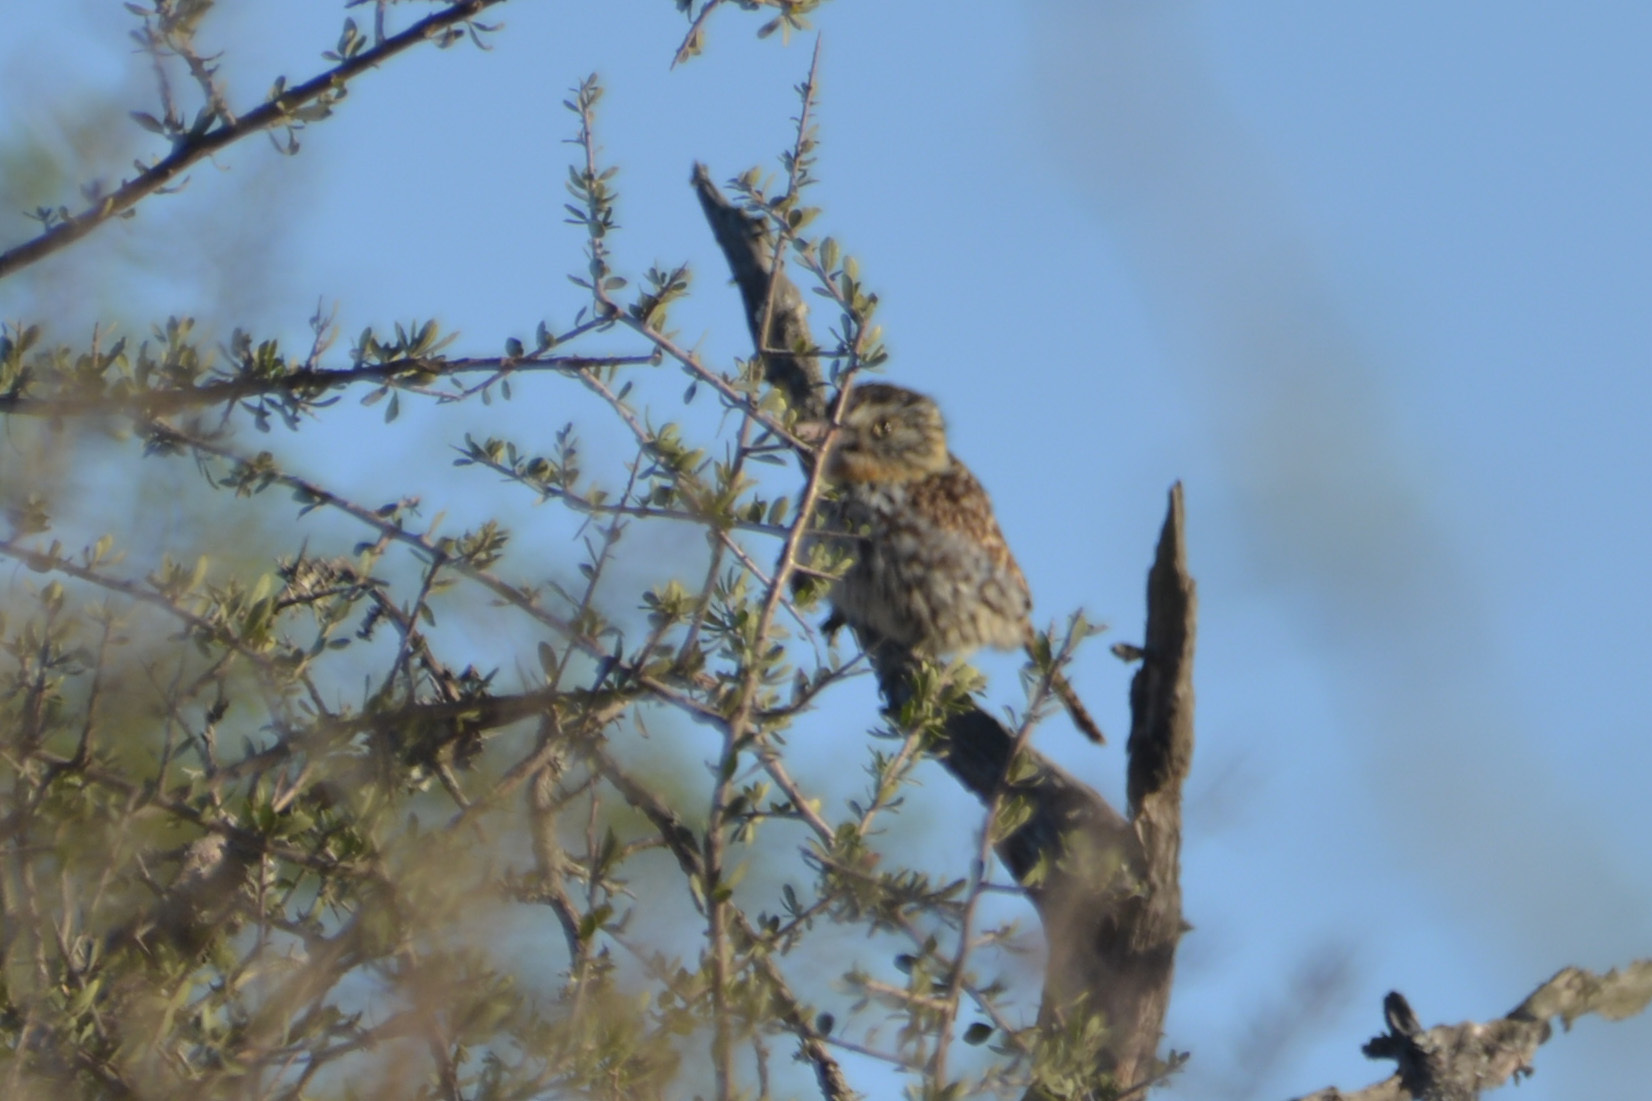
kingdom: Animalia
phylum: Chordata
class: Aves
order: Piciformes
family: Bucconidae
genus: Nystalus
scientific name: Nystalus maculatus
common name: Caatinga puffbird
